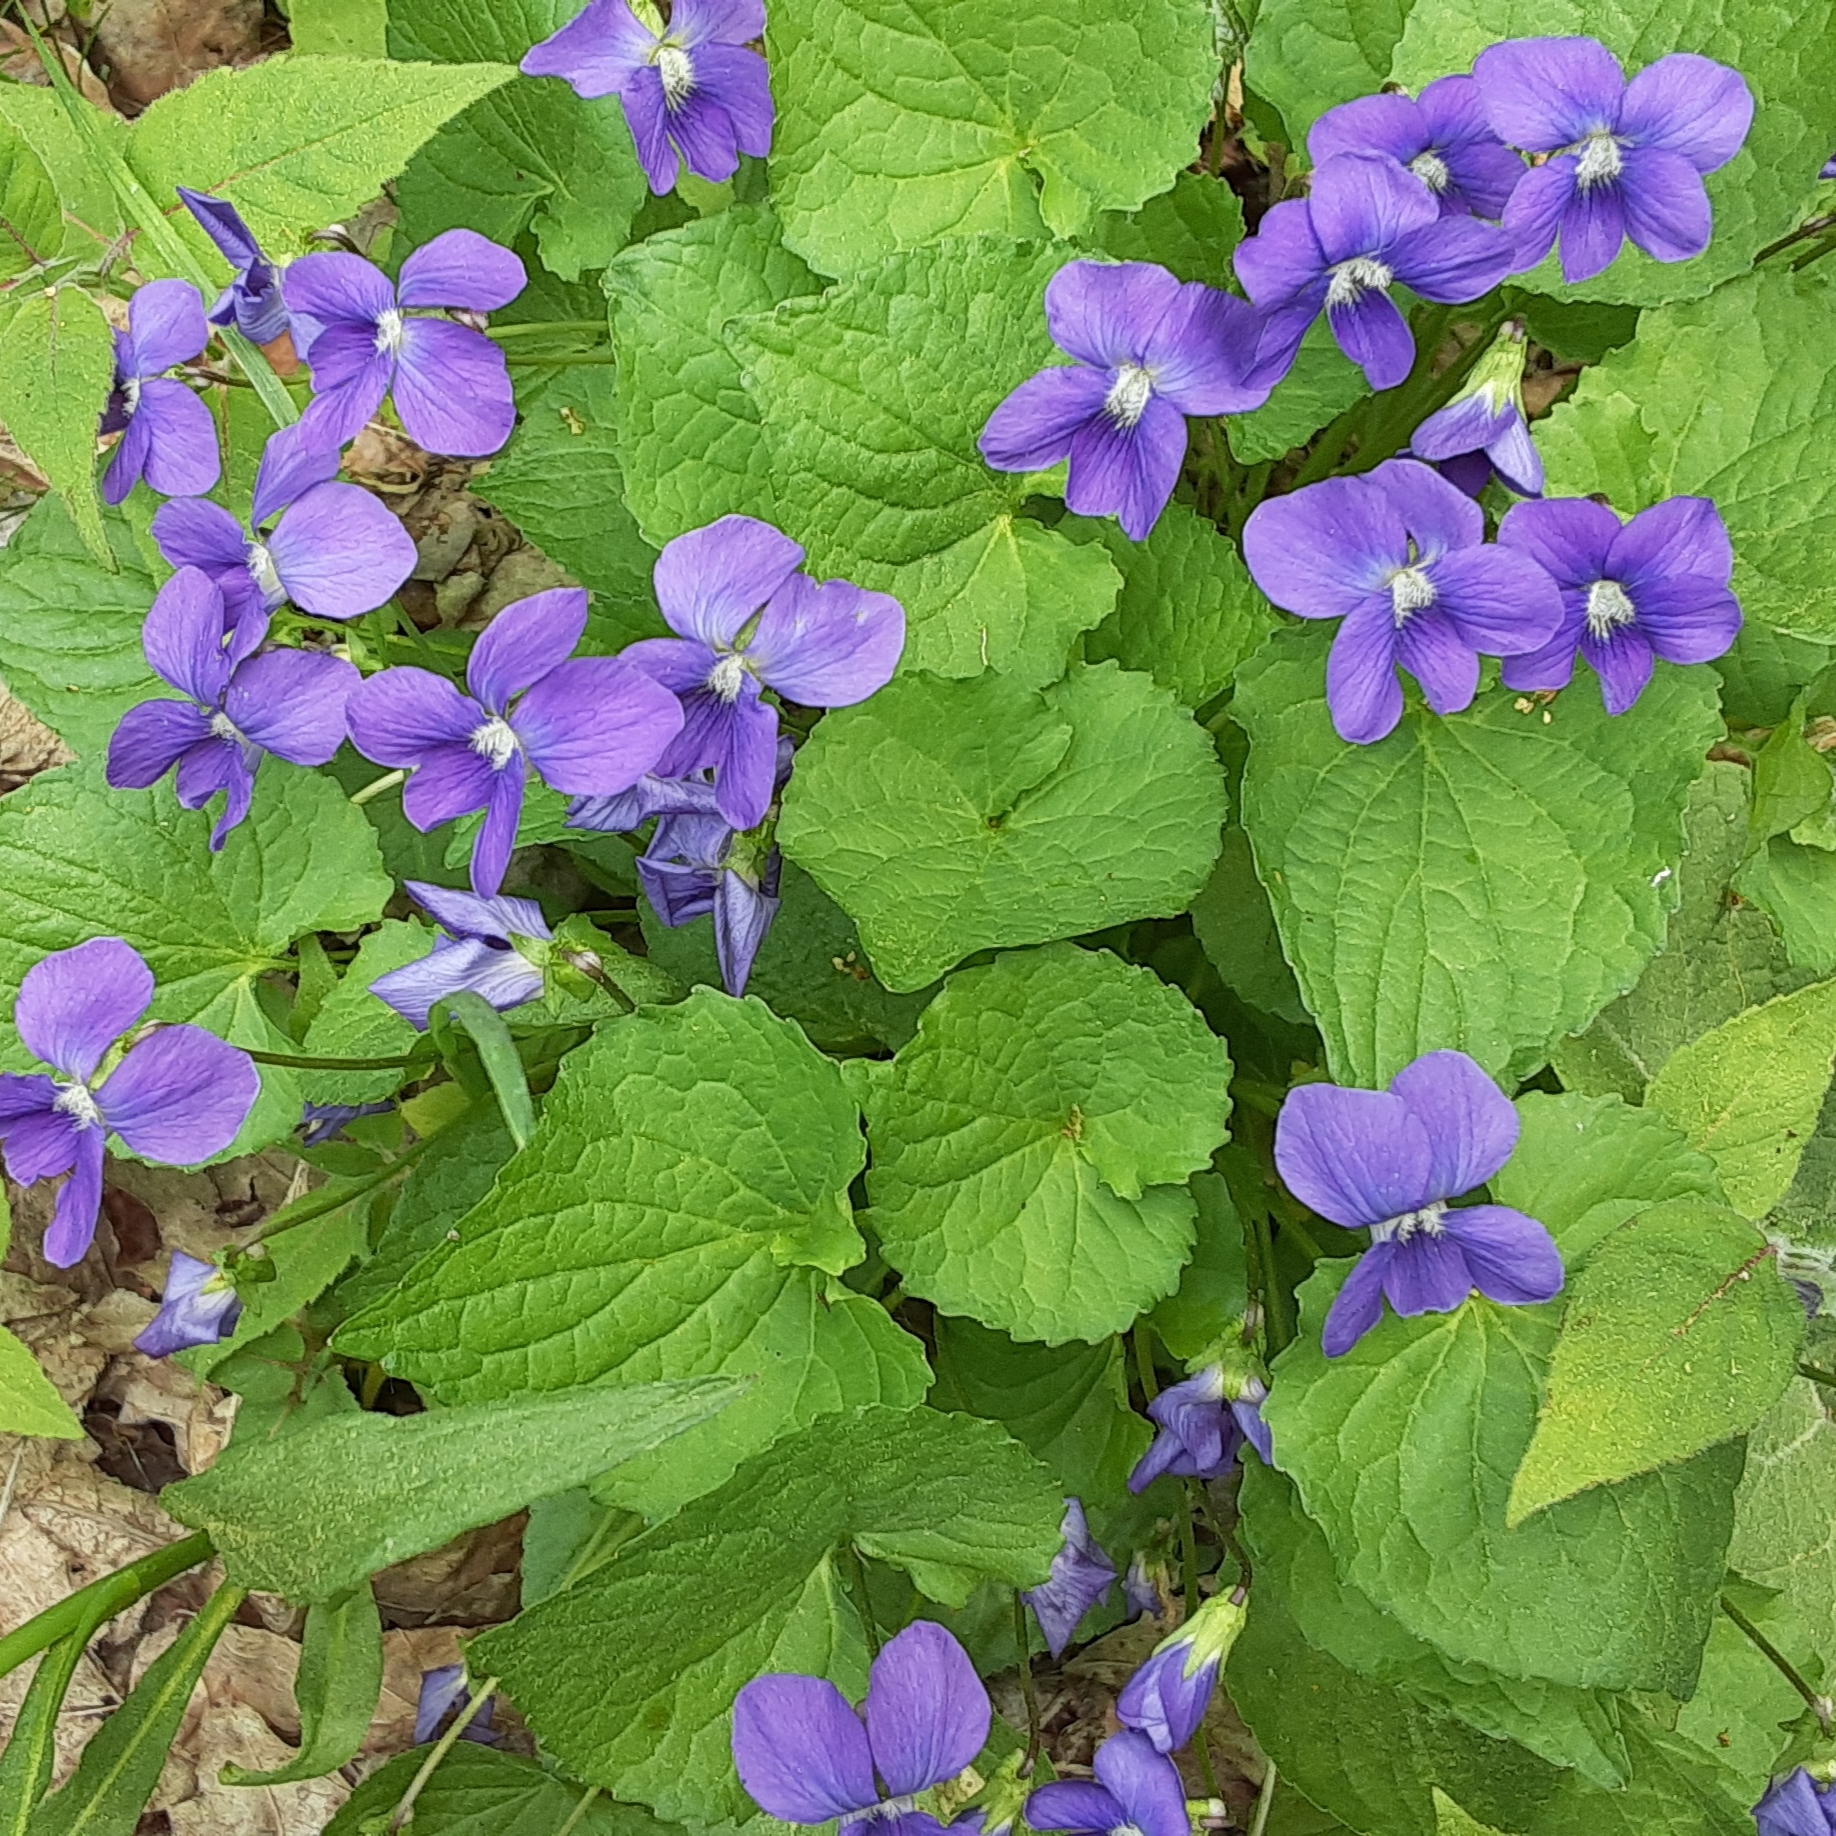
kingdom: Plantae
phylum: Tracheophyta
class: Magnoliopsida
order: Malpighiales
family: Violaceae
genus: Viola
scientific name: Viola sororia
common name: Dooryard violet
